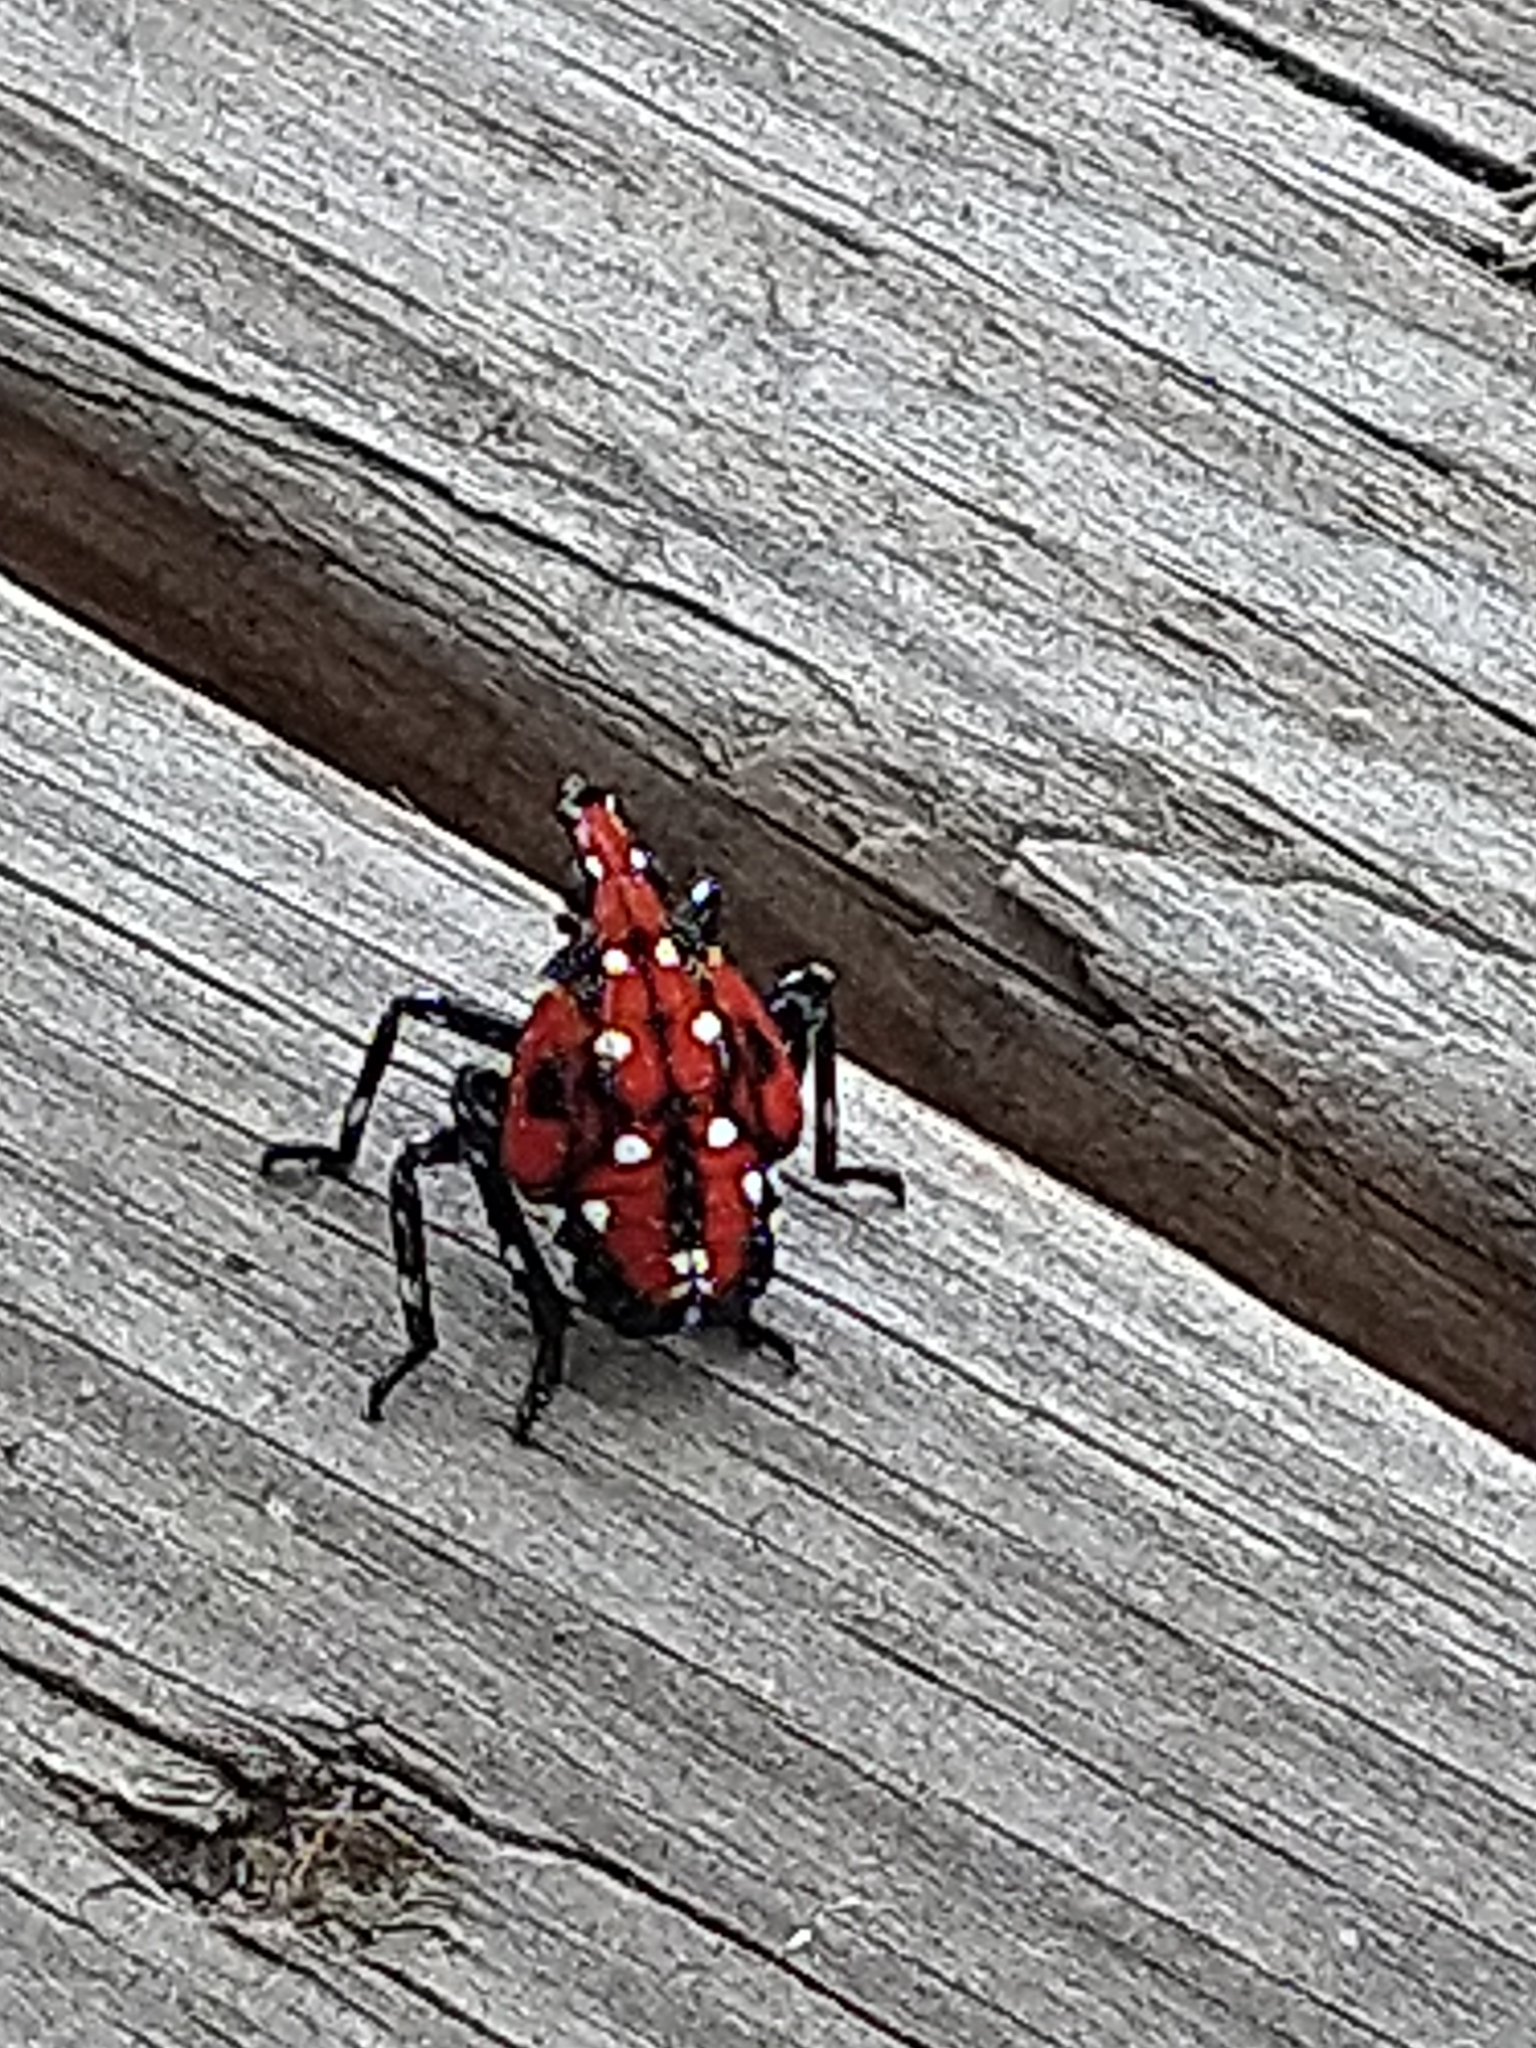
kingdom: Animalia
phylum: Arthropoda
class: Insecta
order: Hemiptera
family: Fulgoridae
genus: Lycorma
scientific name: Lycorma delicatula
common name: Spotted lanternfly
